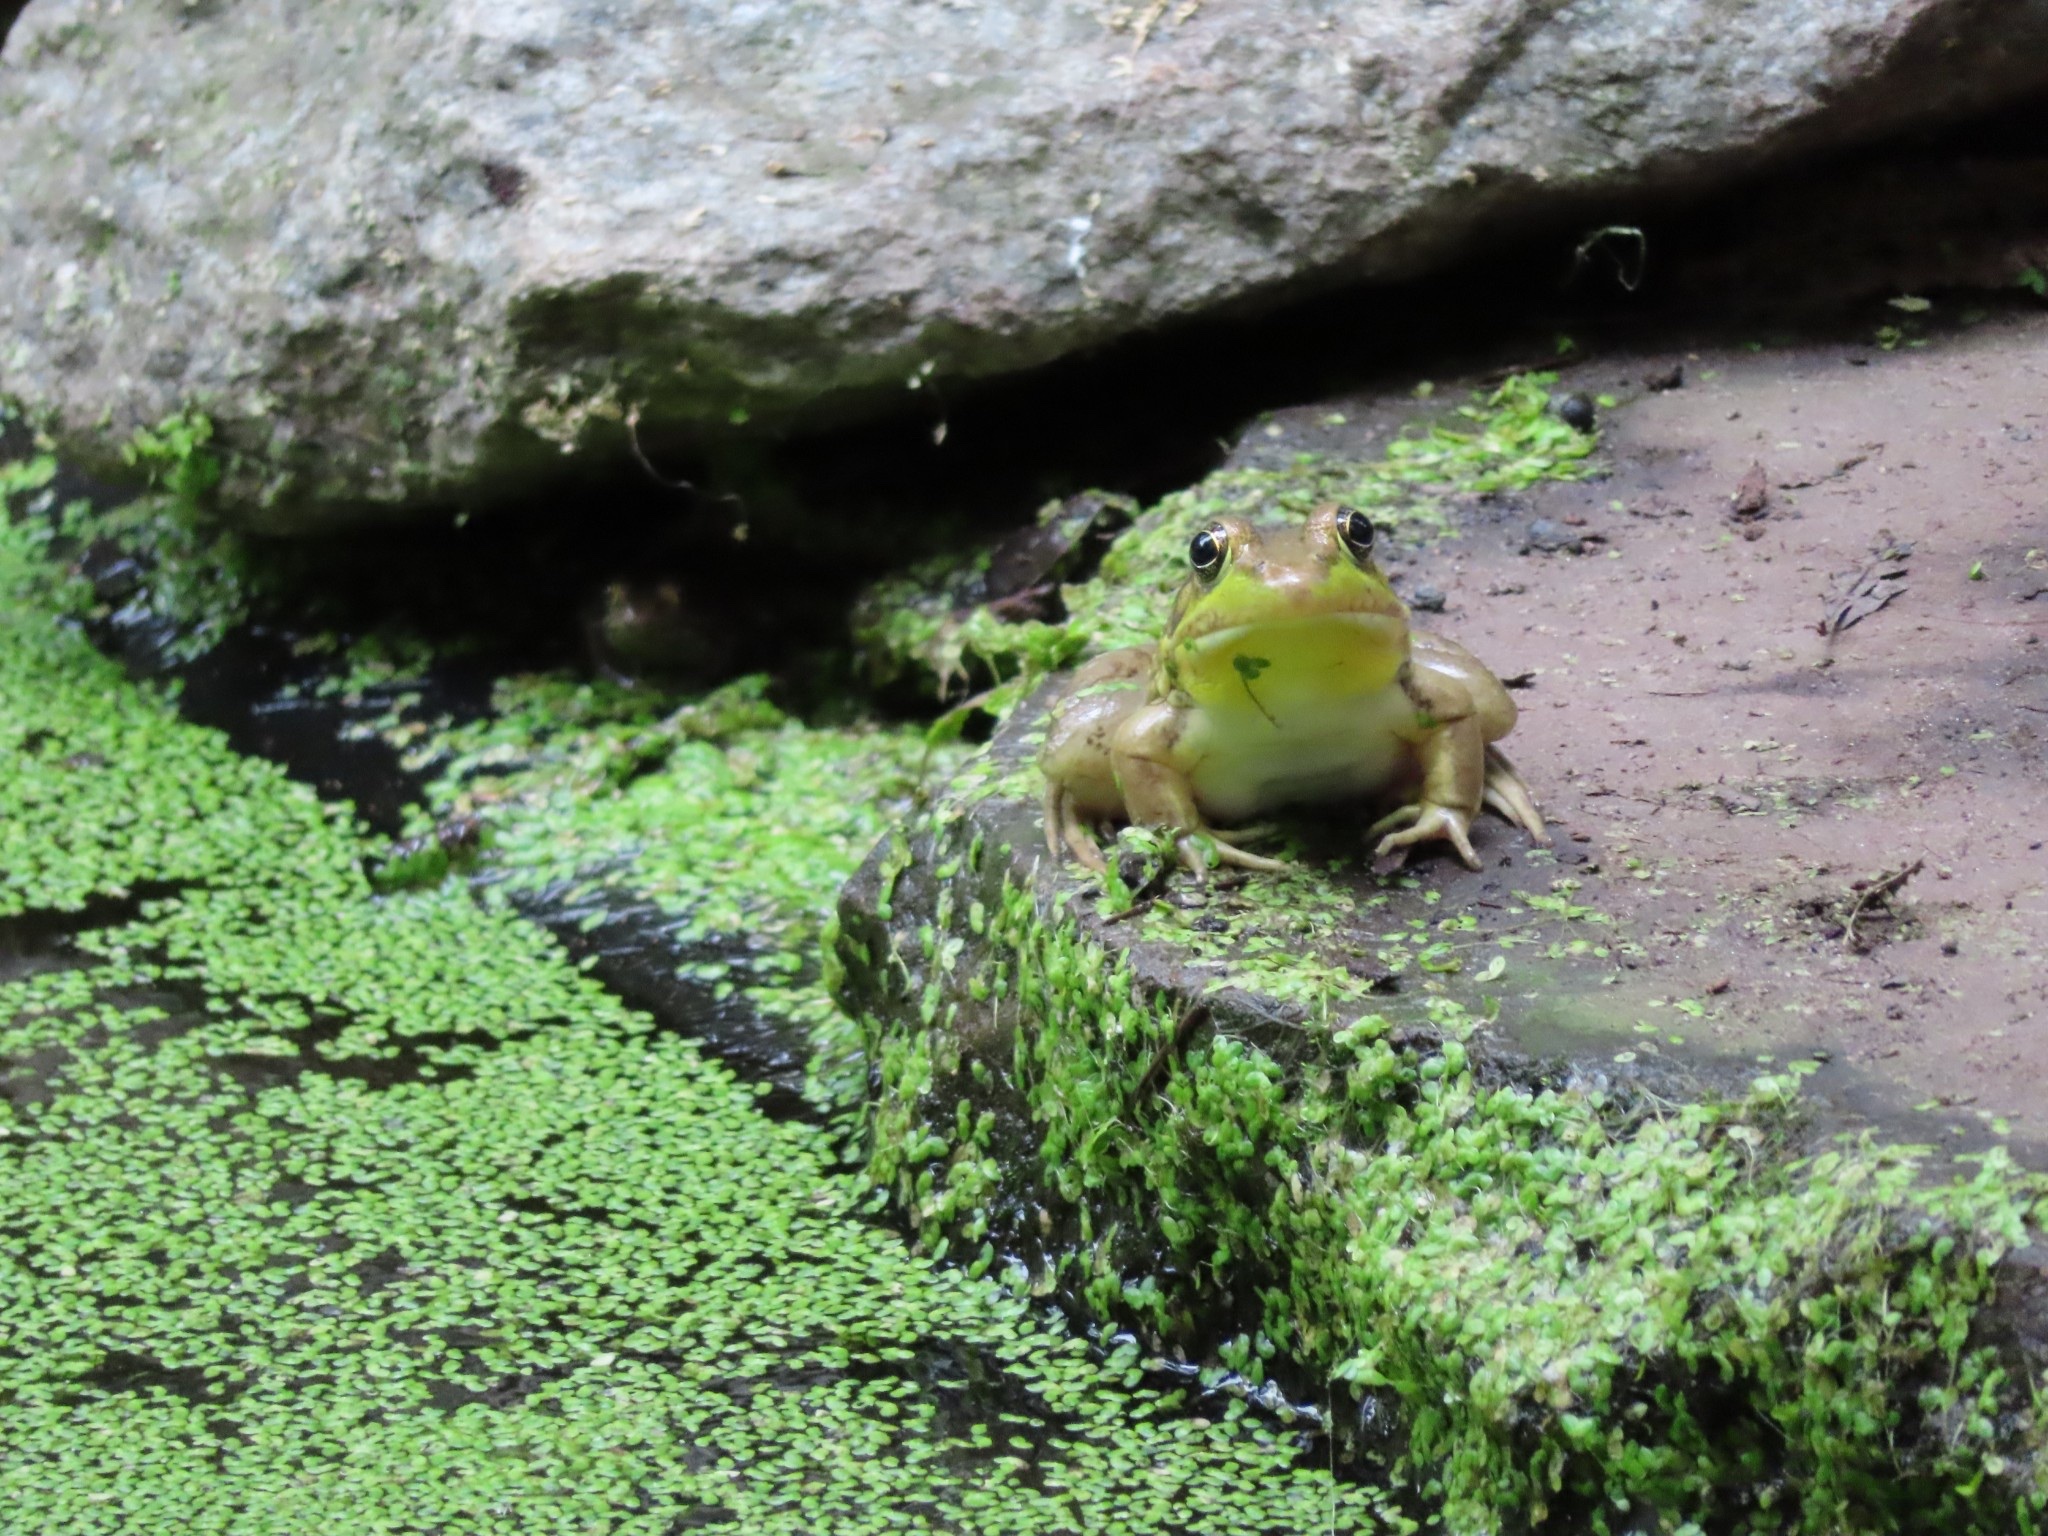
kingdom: Animalia
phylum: Chordata
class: Amphibia
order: Anura
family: Ranidae
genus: Lithobates
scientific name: Lithobates clamitans
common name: Green frog
